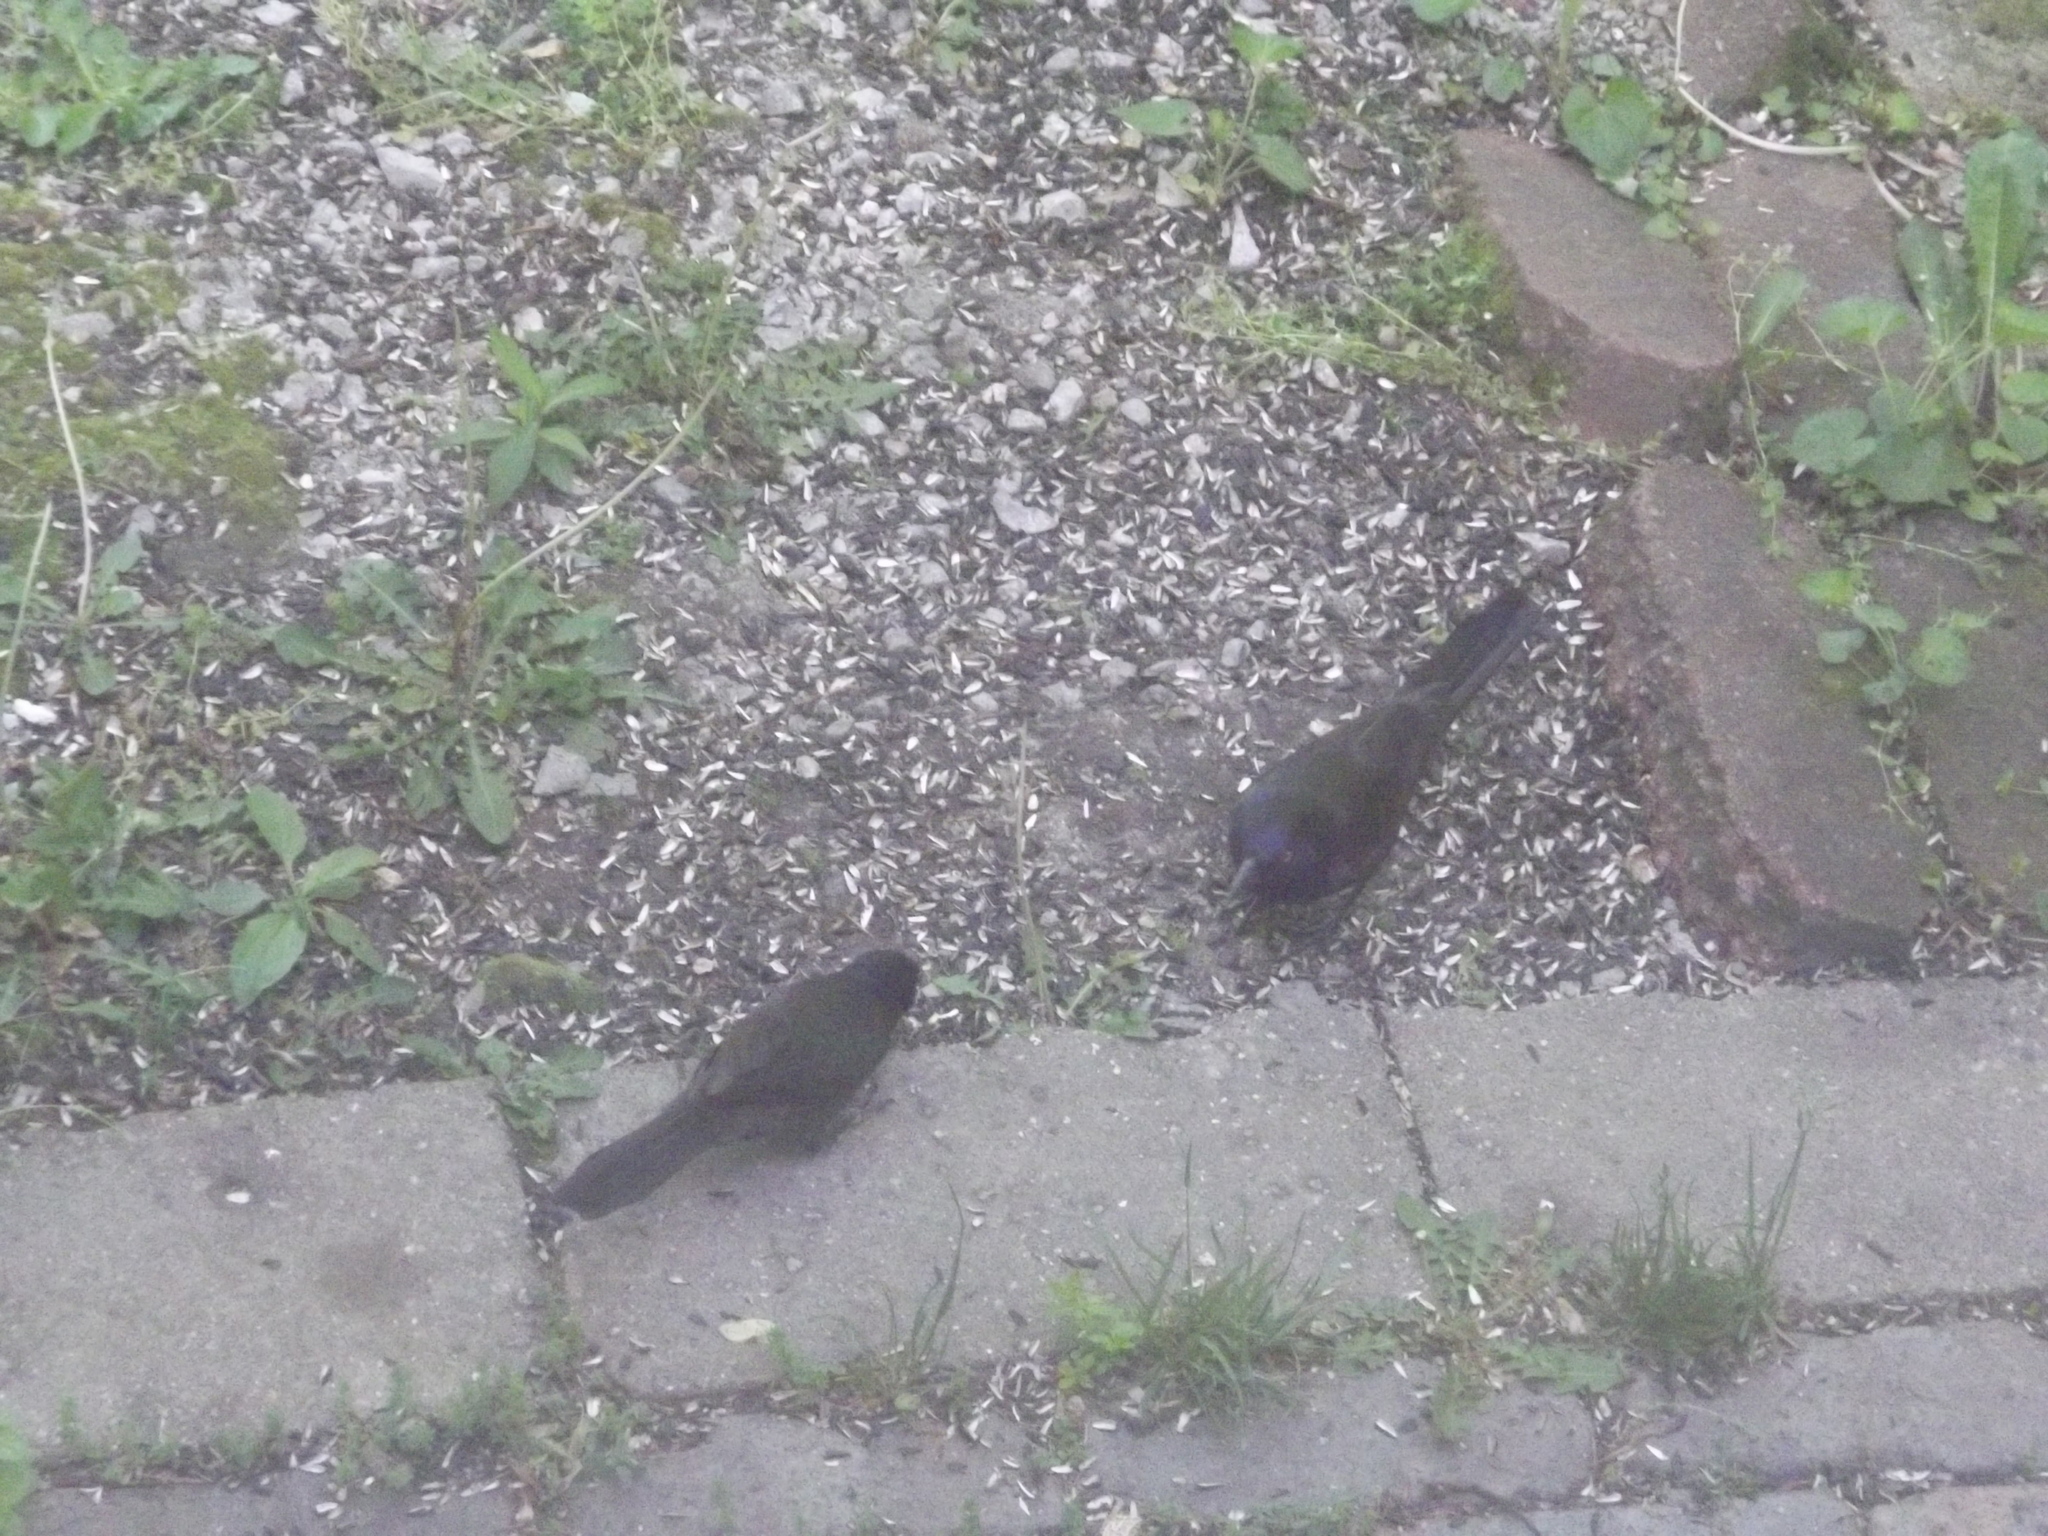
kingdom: Animalia
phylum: Chordata
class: Aves
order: Passeriformes
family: Icteridae
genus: Quiscalus
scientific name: Quiscalus quiscula
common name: Common grackle
